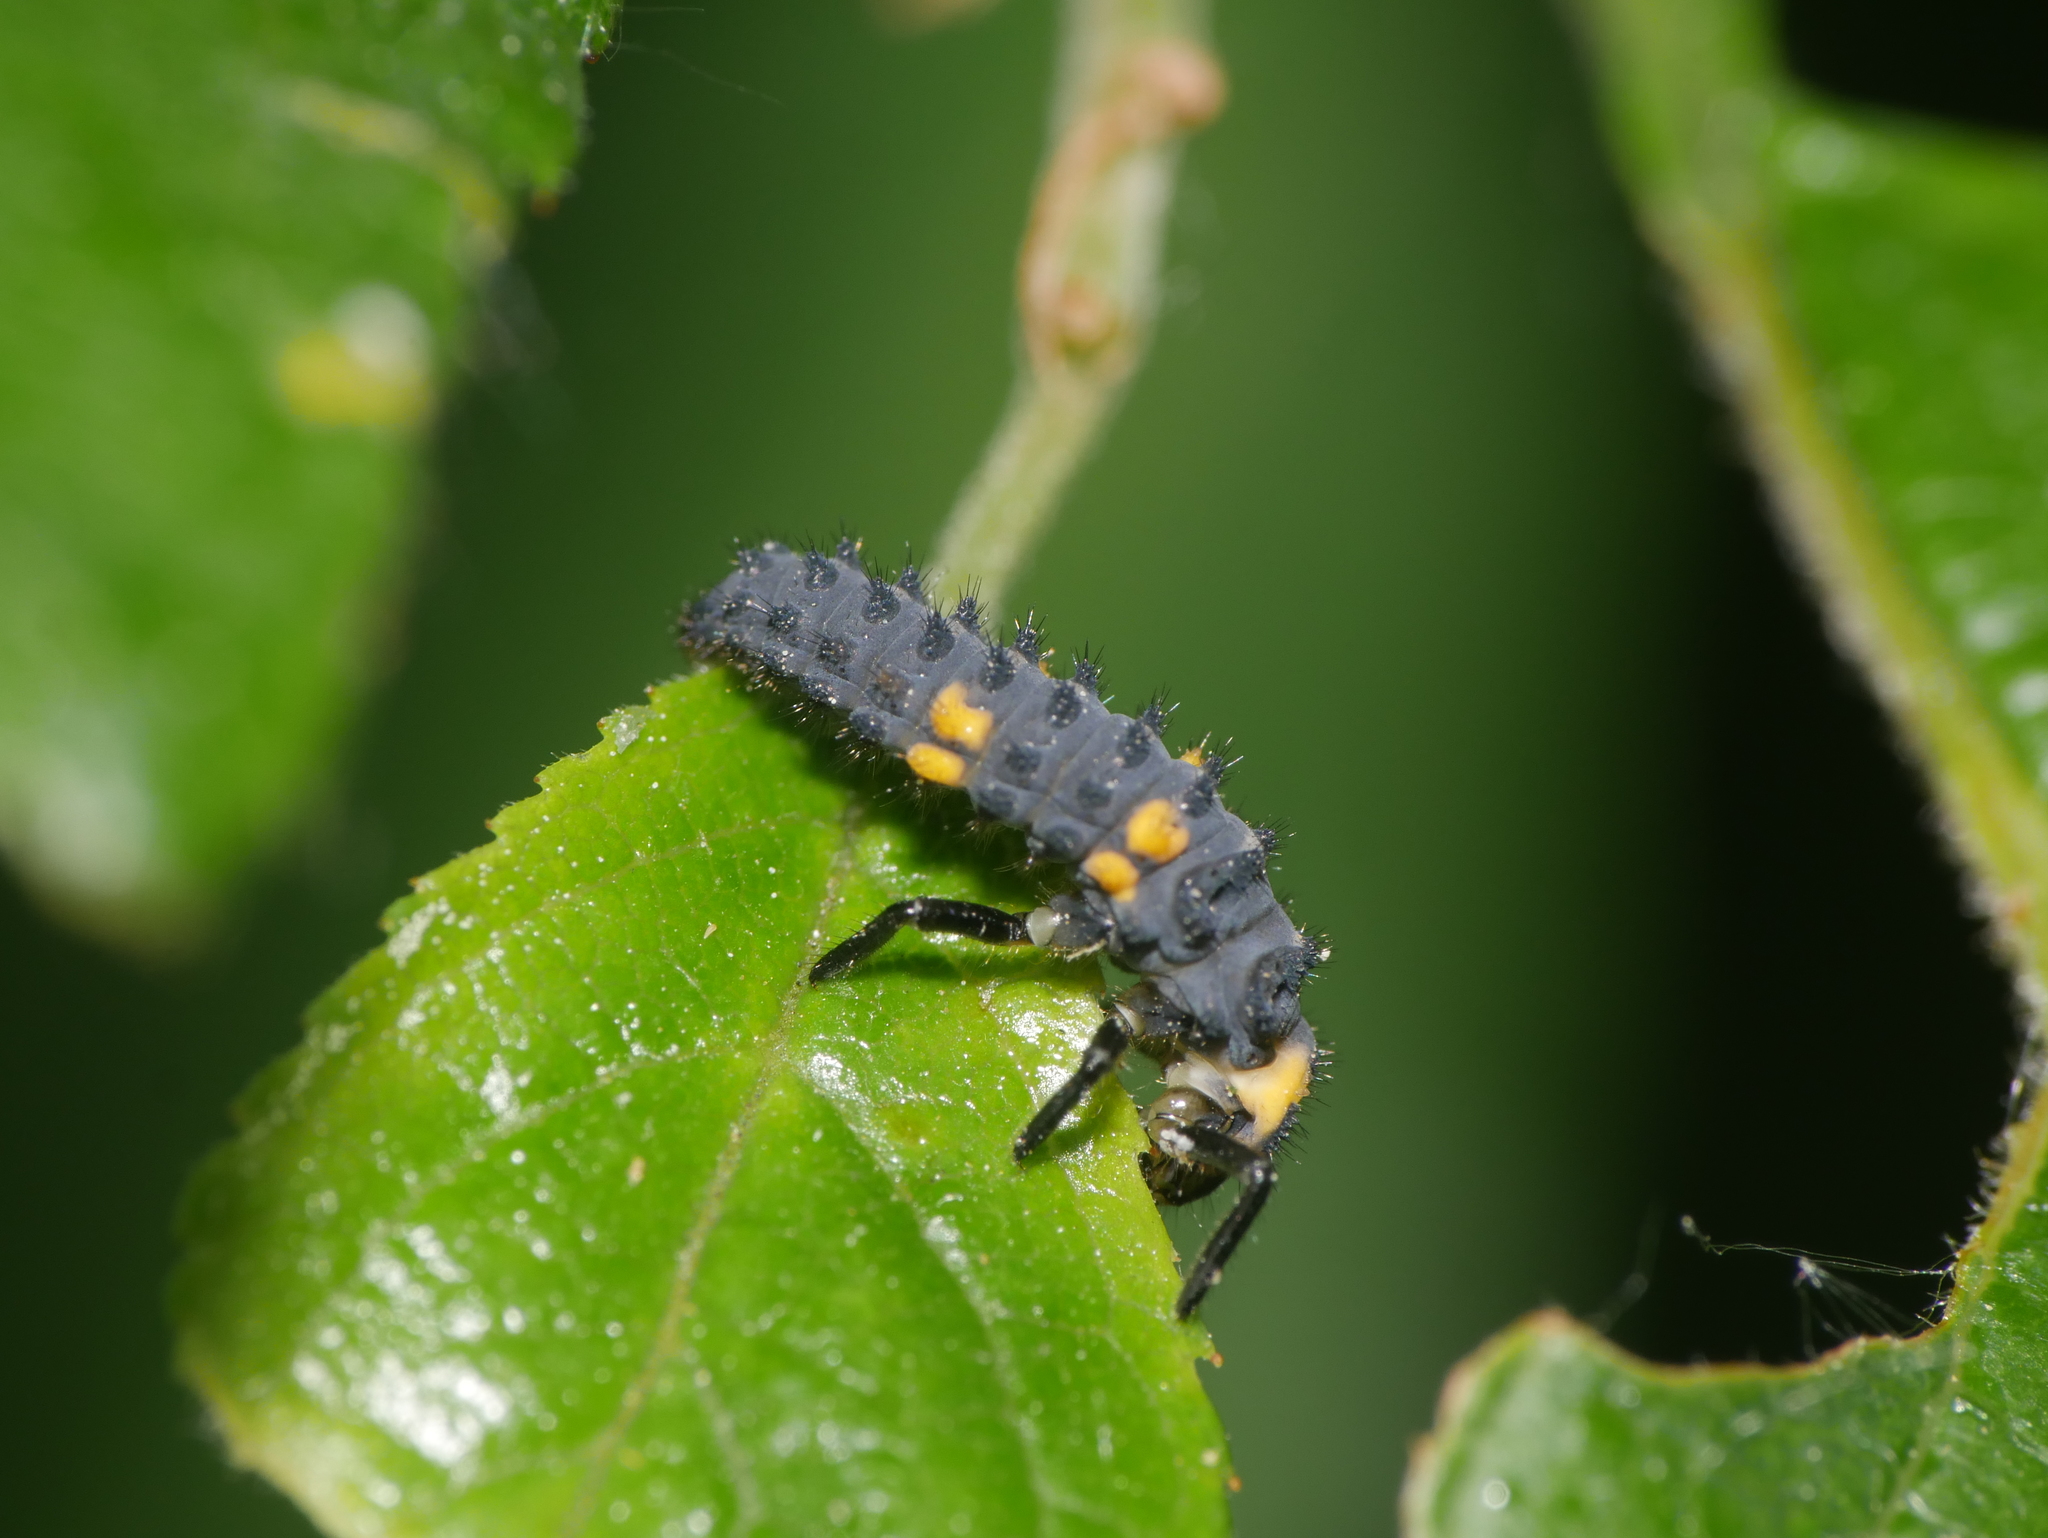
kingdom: Animalia
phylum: Arthropoda
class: Insecta
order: Coleoptera
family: Coccinellidae
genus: Coccinella
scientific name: Coccinella septempunctata
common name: Sevenspotted lady beetle
